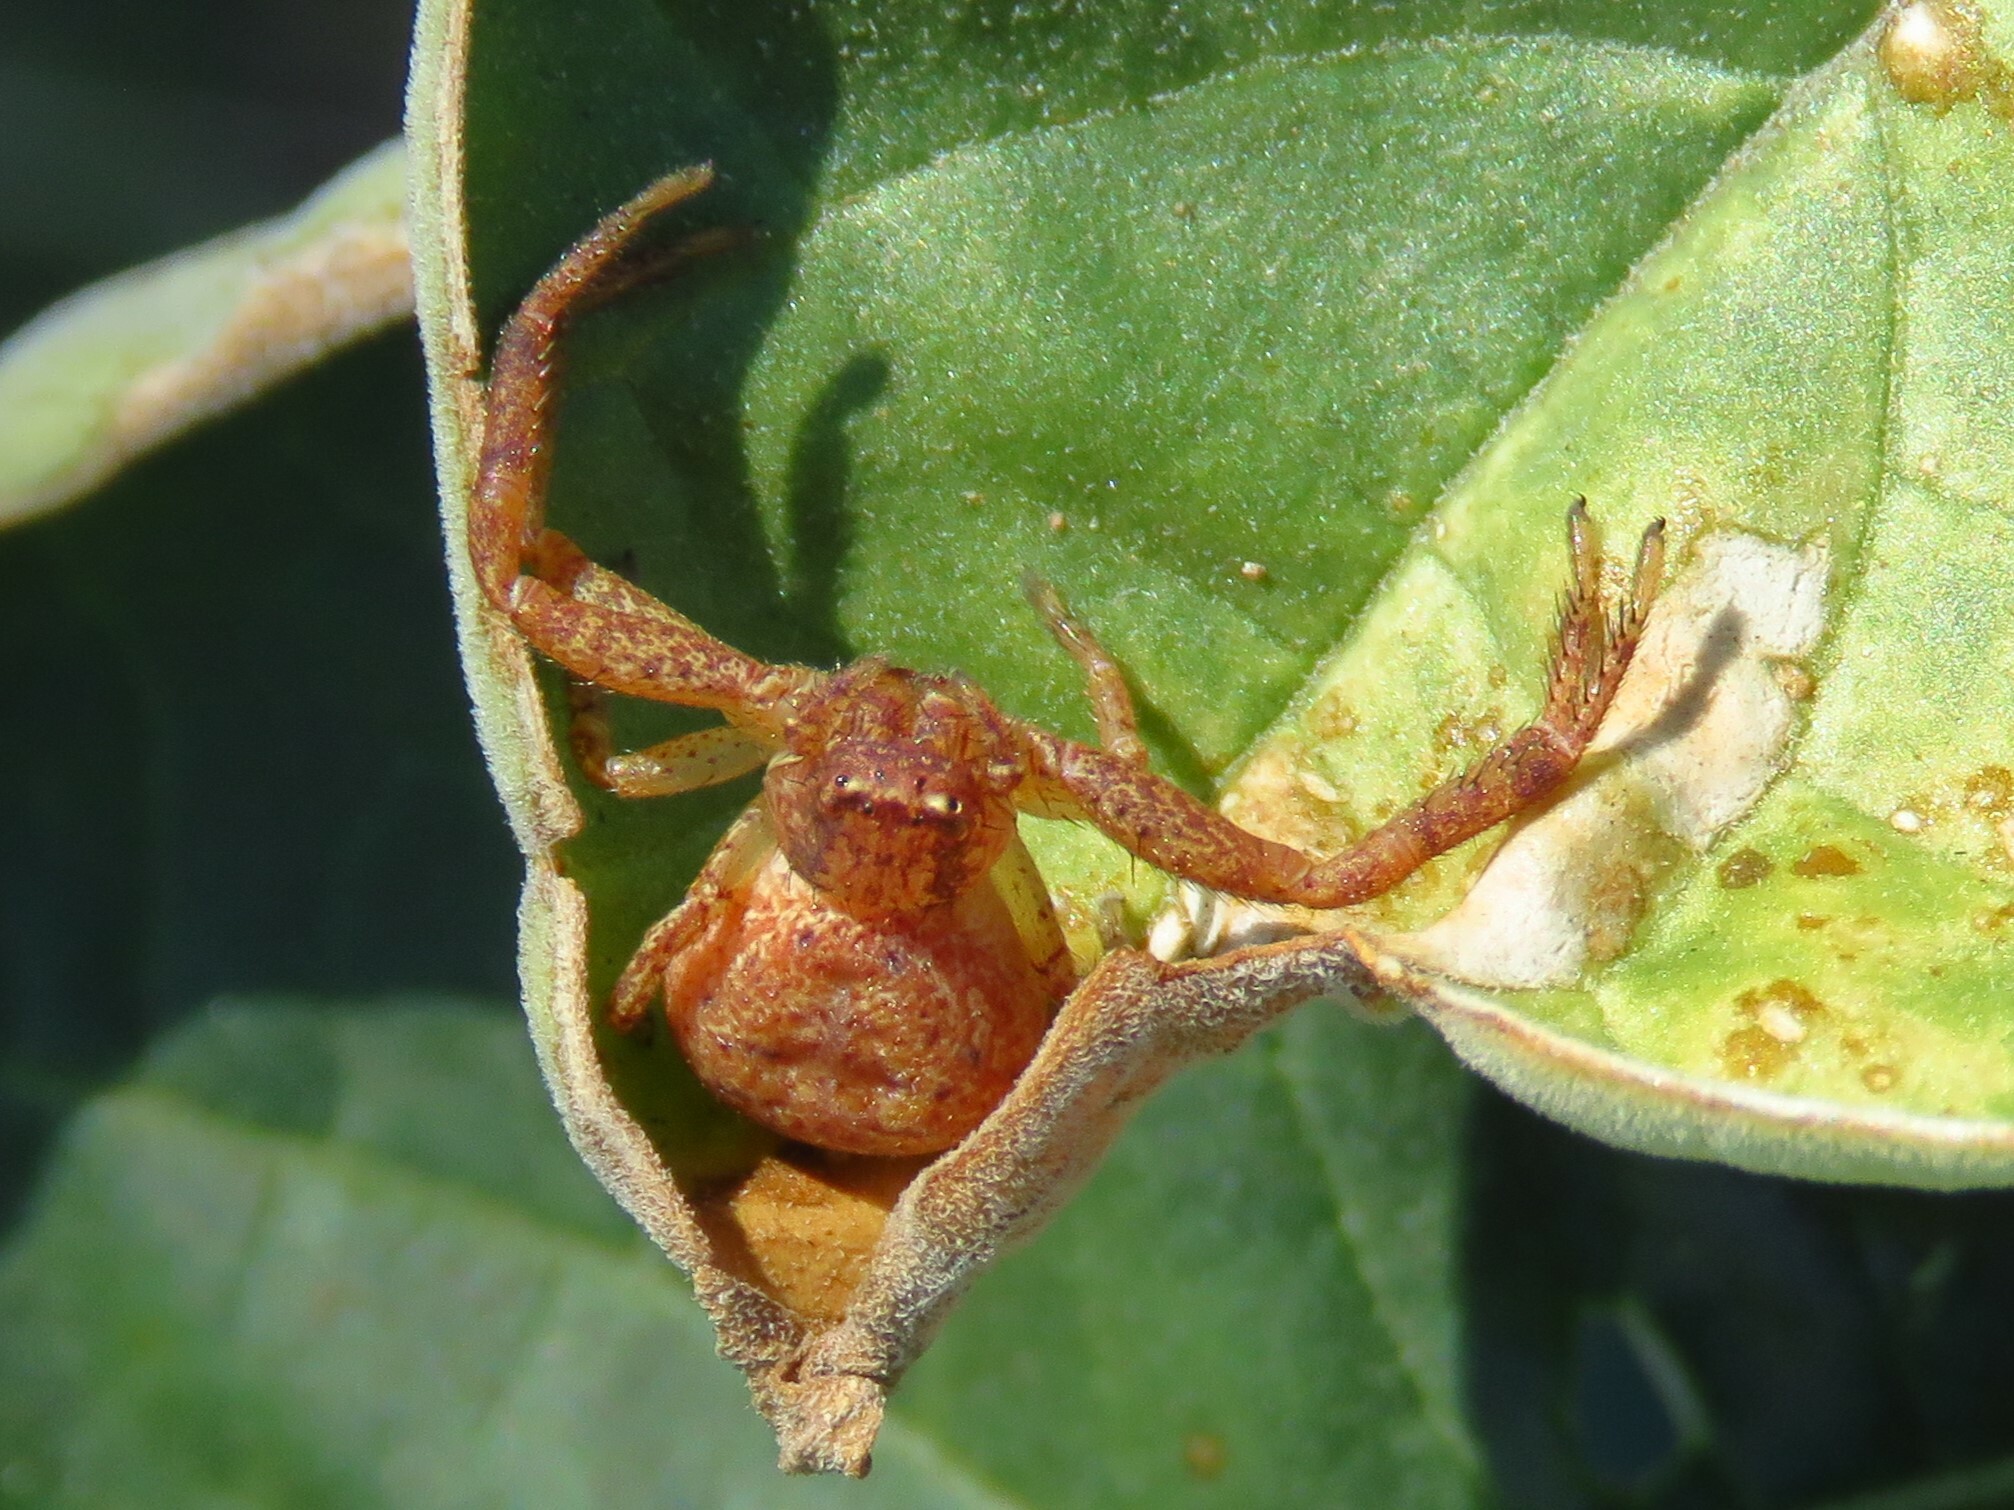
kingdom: Animalia
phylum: Arthropoda
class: Arachnida
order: Araneae
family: Thomisidae
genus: Xysticus
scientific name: Xysticus funestus
